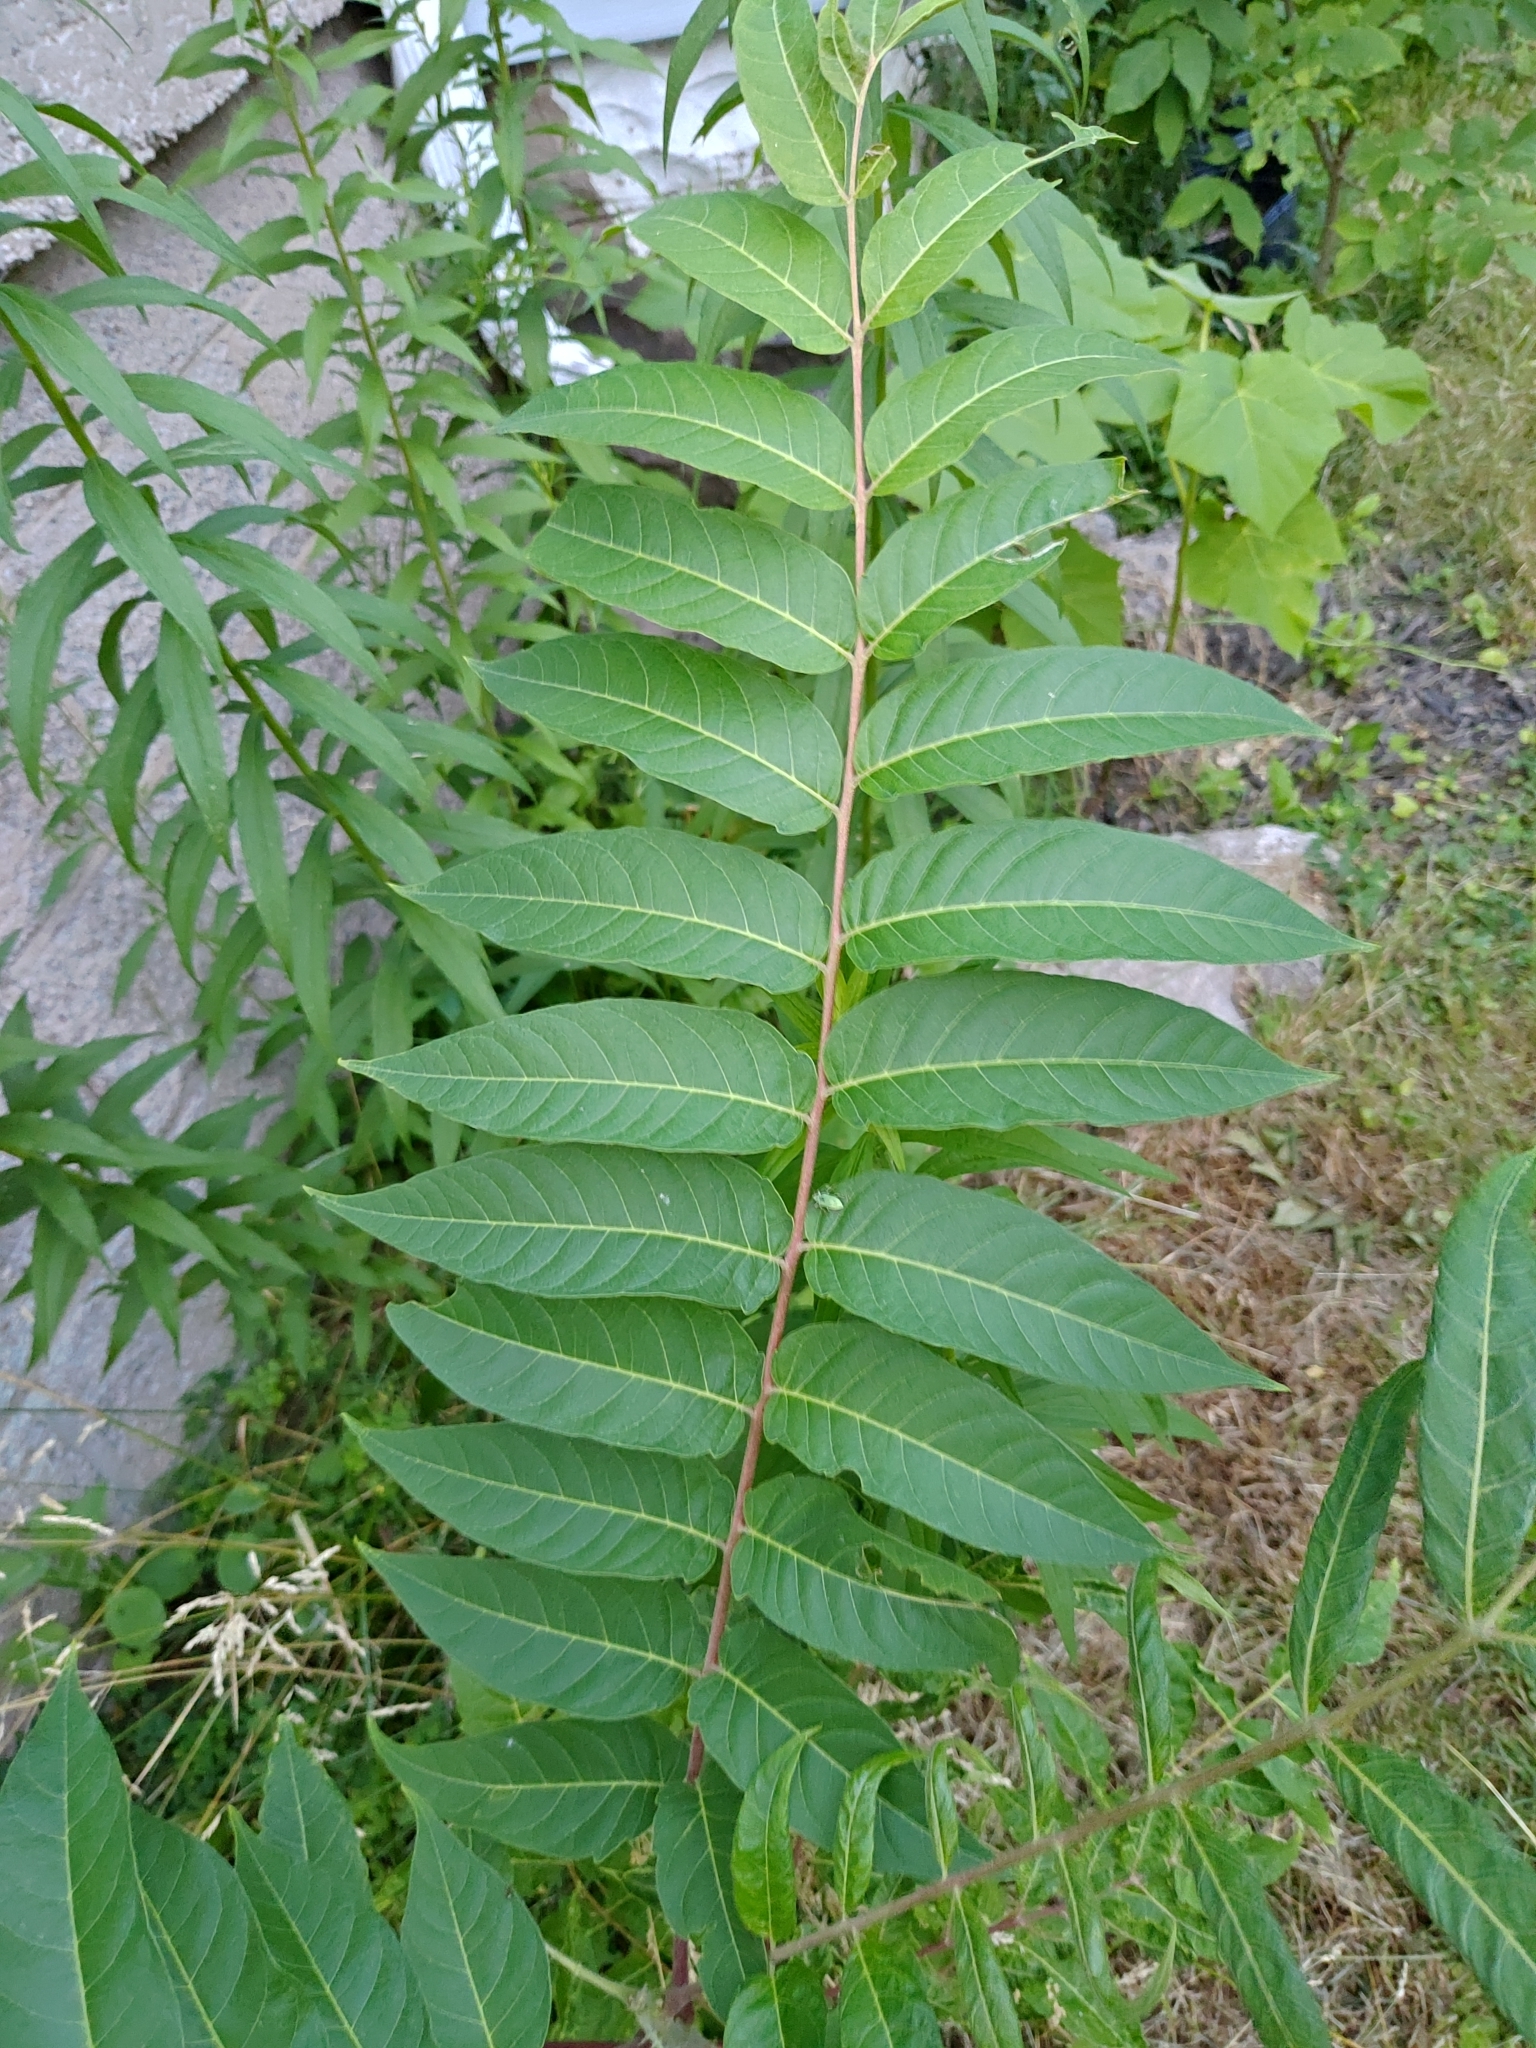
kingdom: Plantae
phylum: Tracheophyta
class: Magnoliopsida
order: Sapindales
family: Simaroubaceae
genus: Ailanthus
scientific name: Ailanthus altissima
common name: Tree-of-heaven
